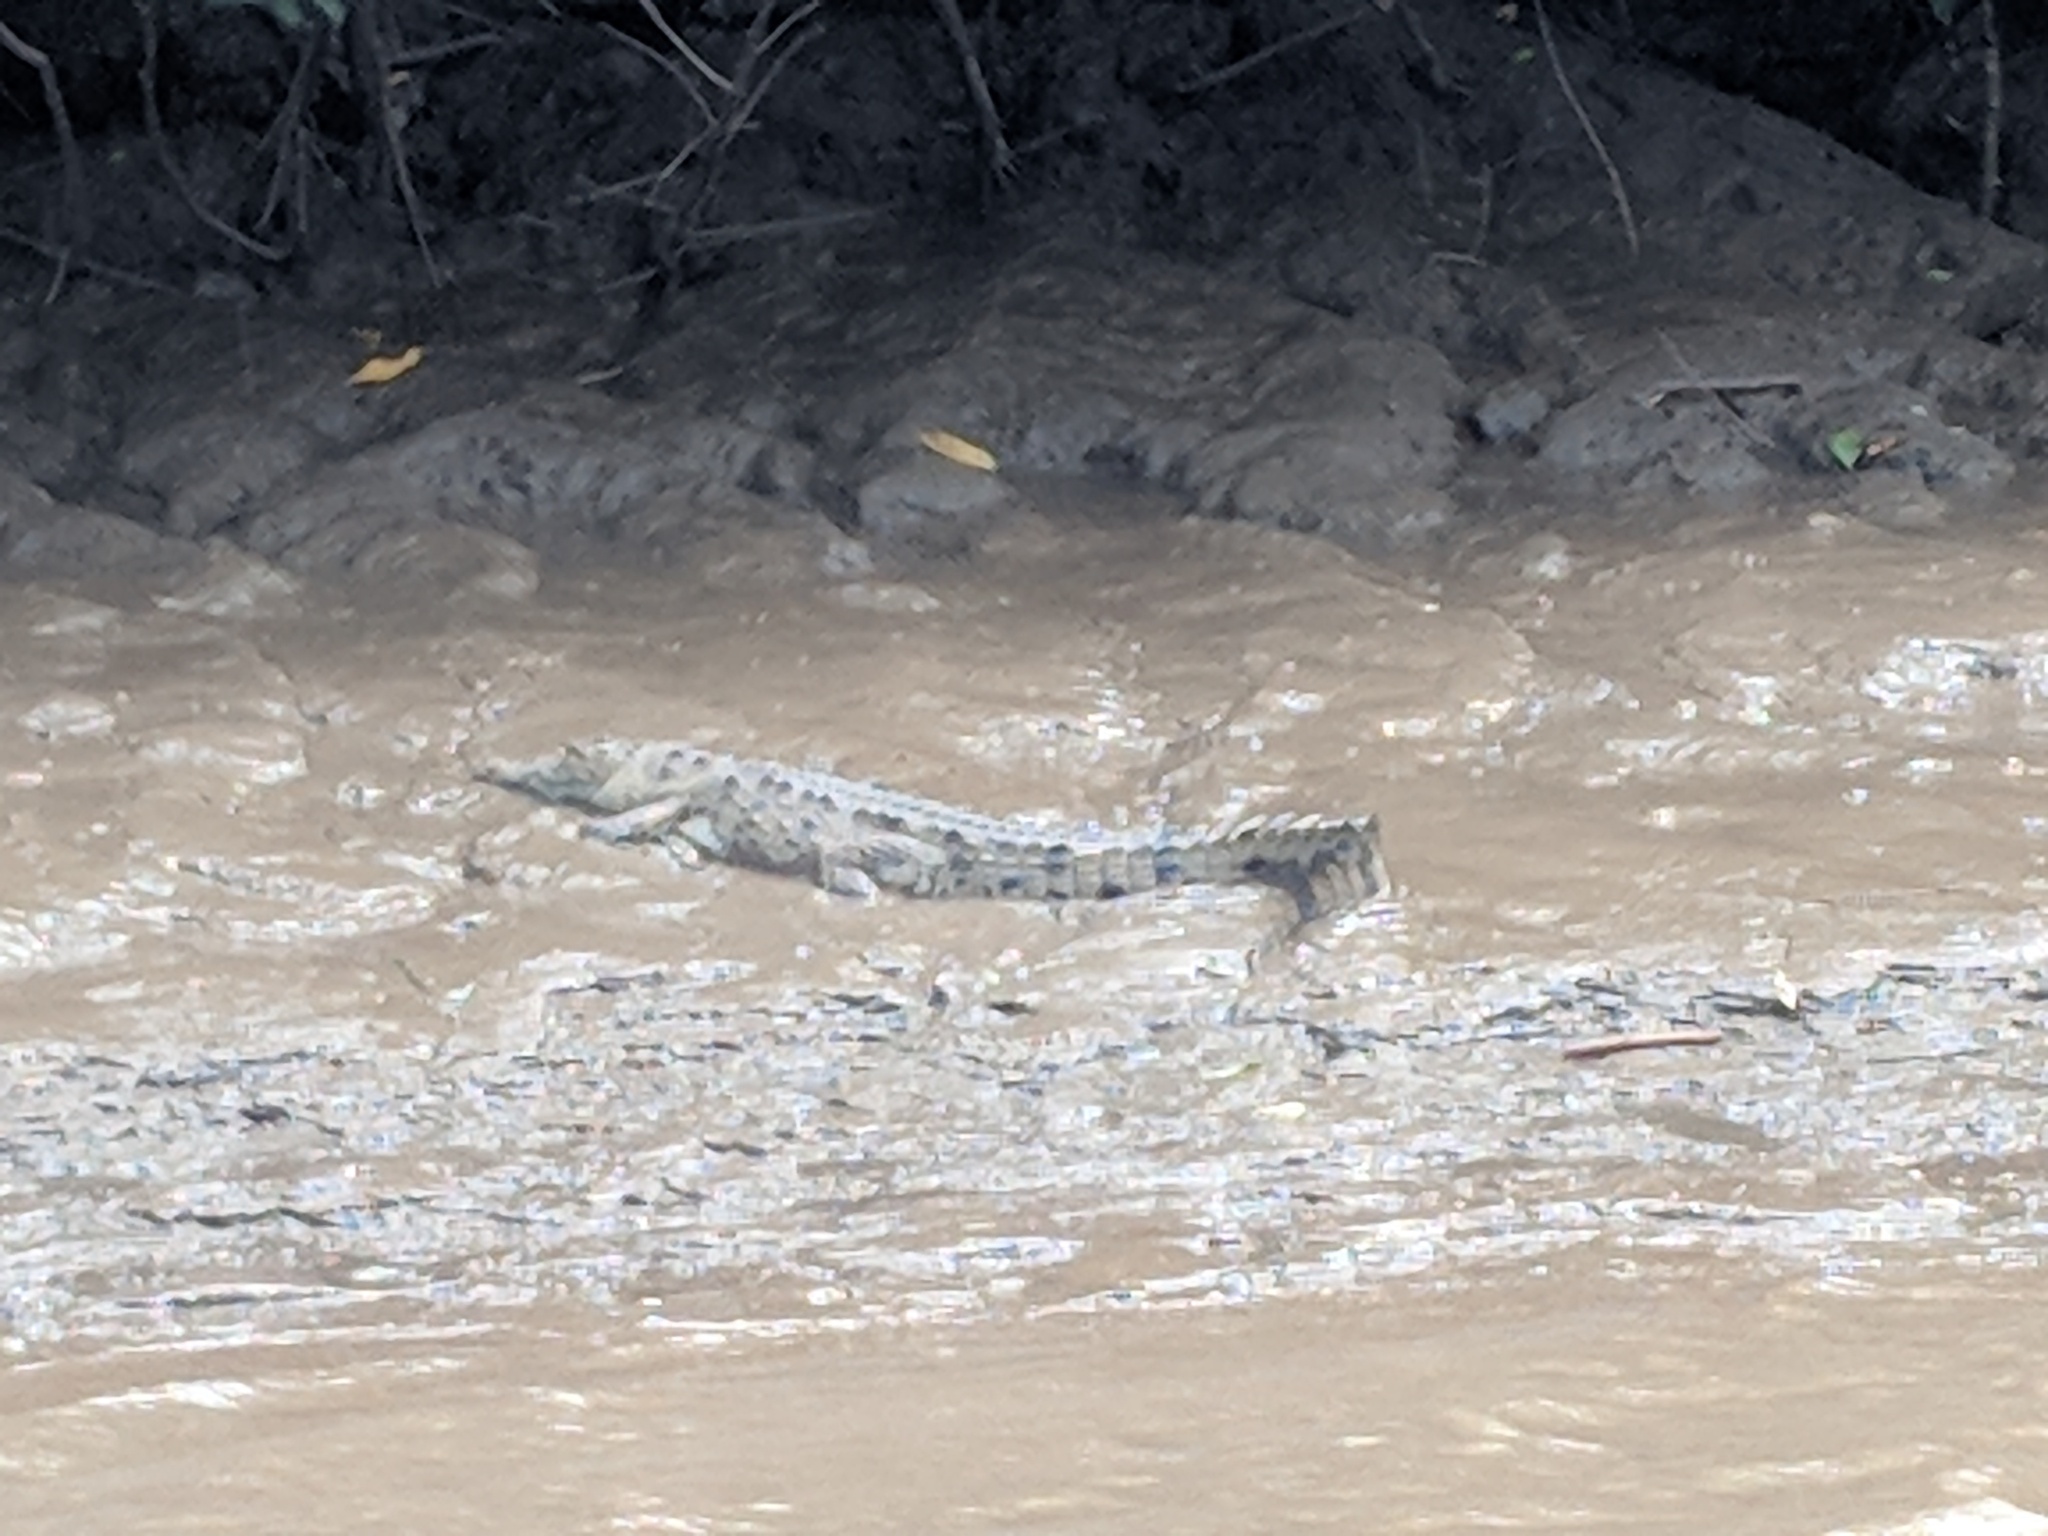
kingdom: Animalia
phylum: Chordata
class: Crocodylia
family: Crocodylidae
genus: Crocodylus
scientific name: Crocodylus acutus
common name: American crocodile
